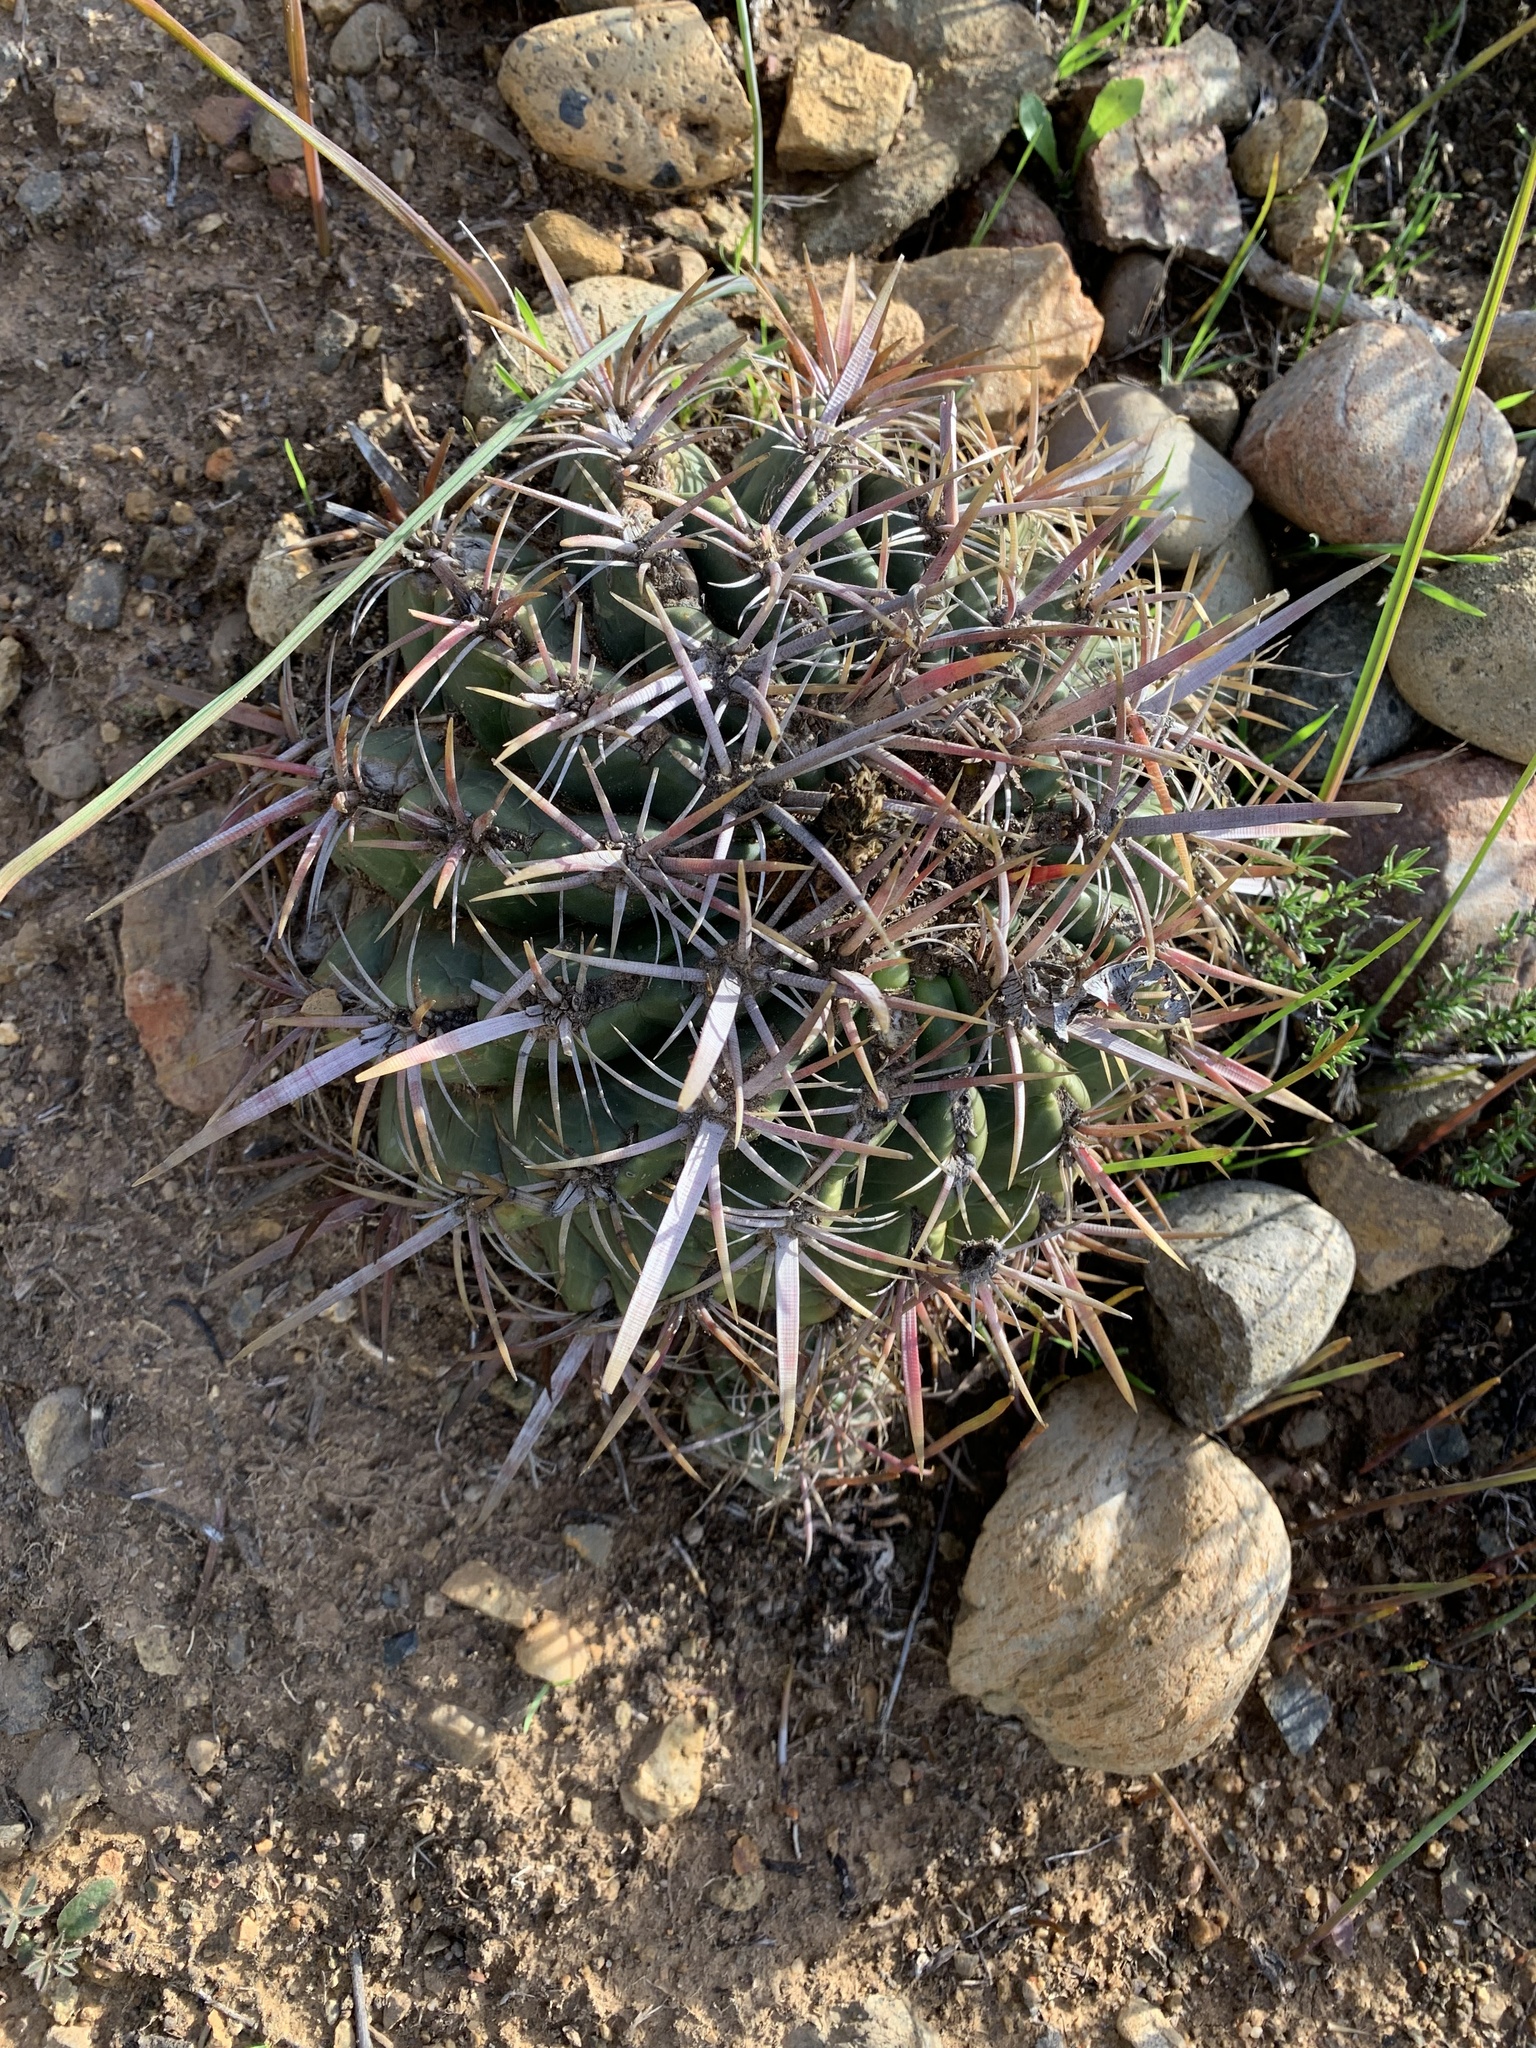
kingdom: Plantae
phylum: Tracheophyta
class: Magnoliopsida
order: Caryophyllales
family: Cactaceae
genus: Ferocactus
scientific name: Ferocactus viridescens
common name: San diego barrel cactus
